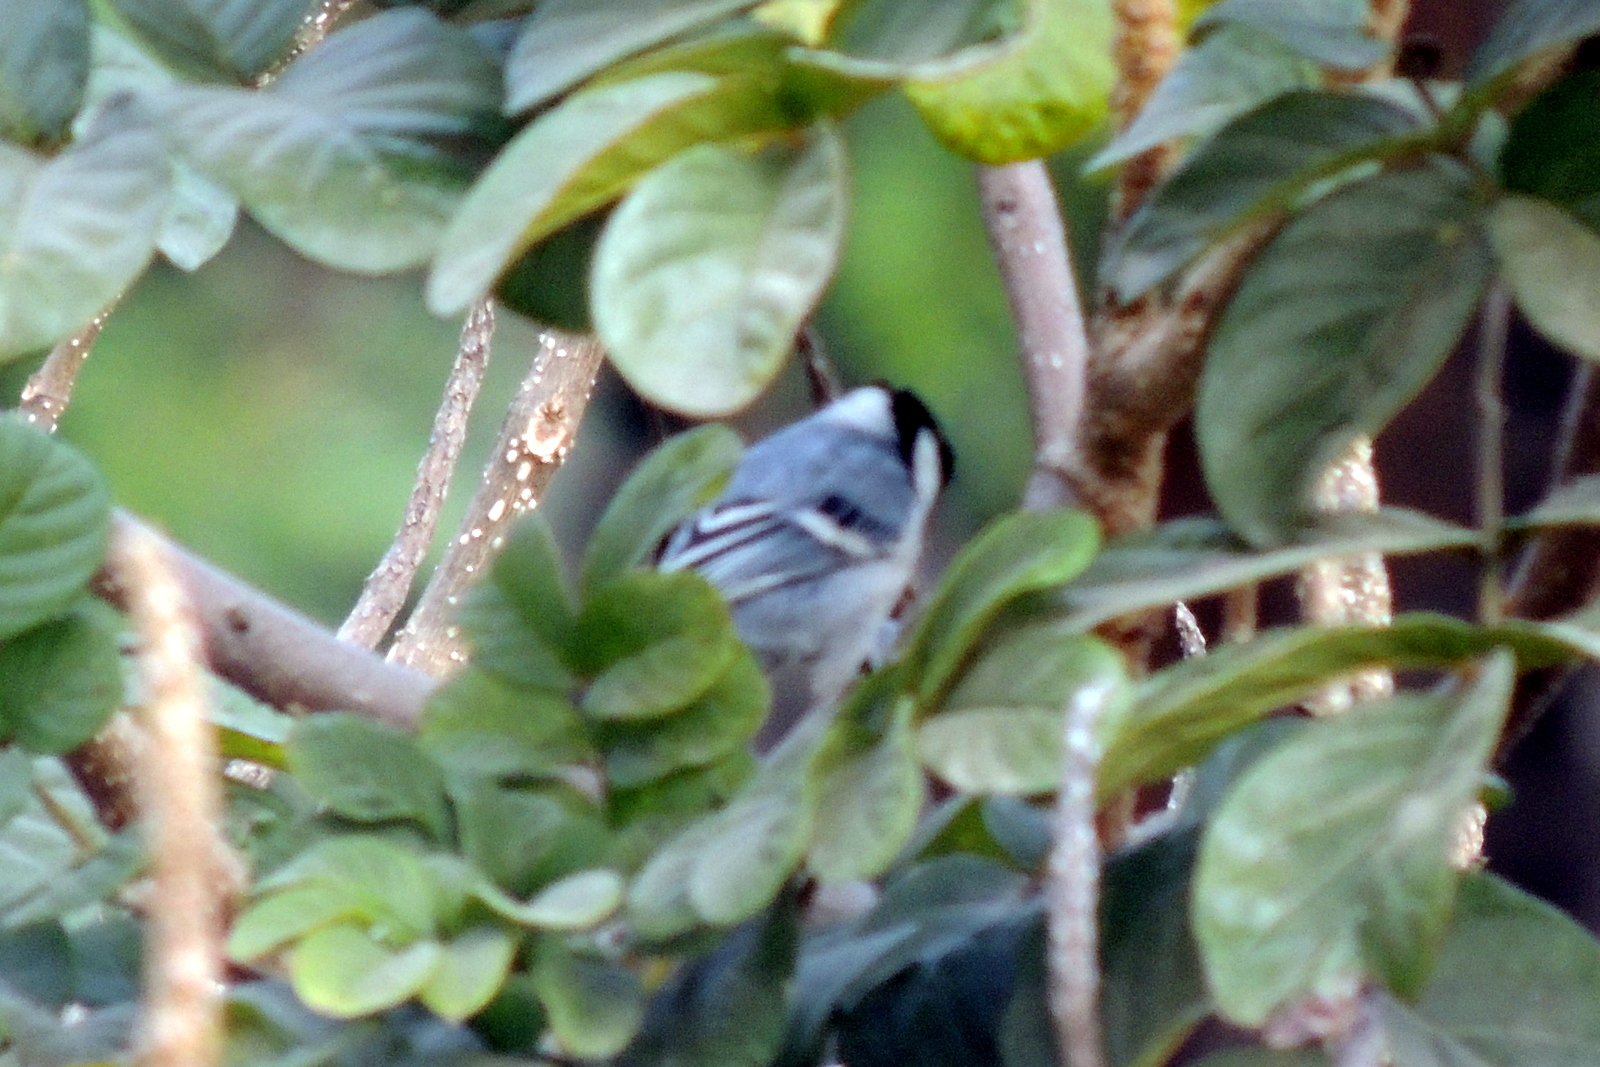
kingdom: Animalia
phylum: Chordata
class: Aves
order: Passeriformes
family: Paridae
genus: Parus
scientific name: Parus cinereus
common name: Cinereous tit
